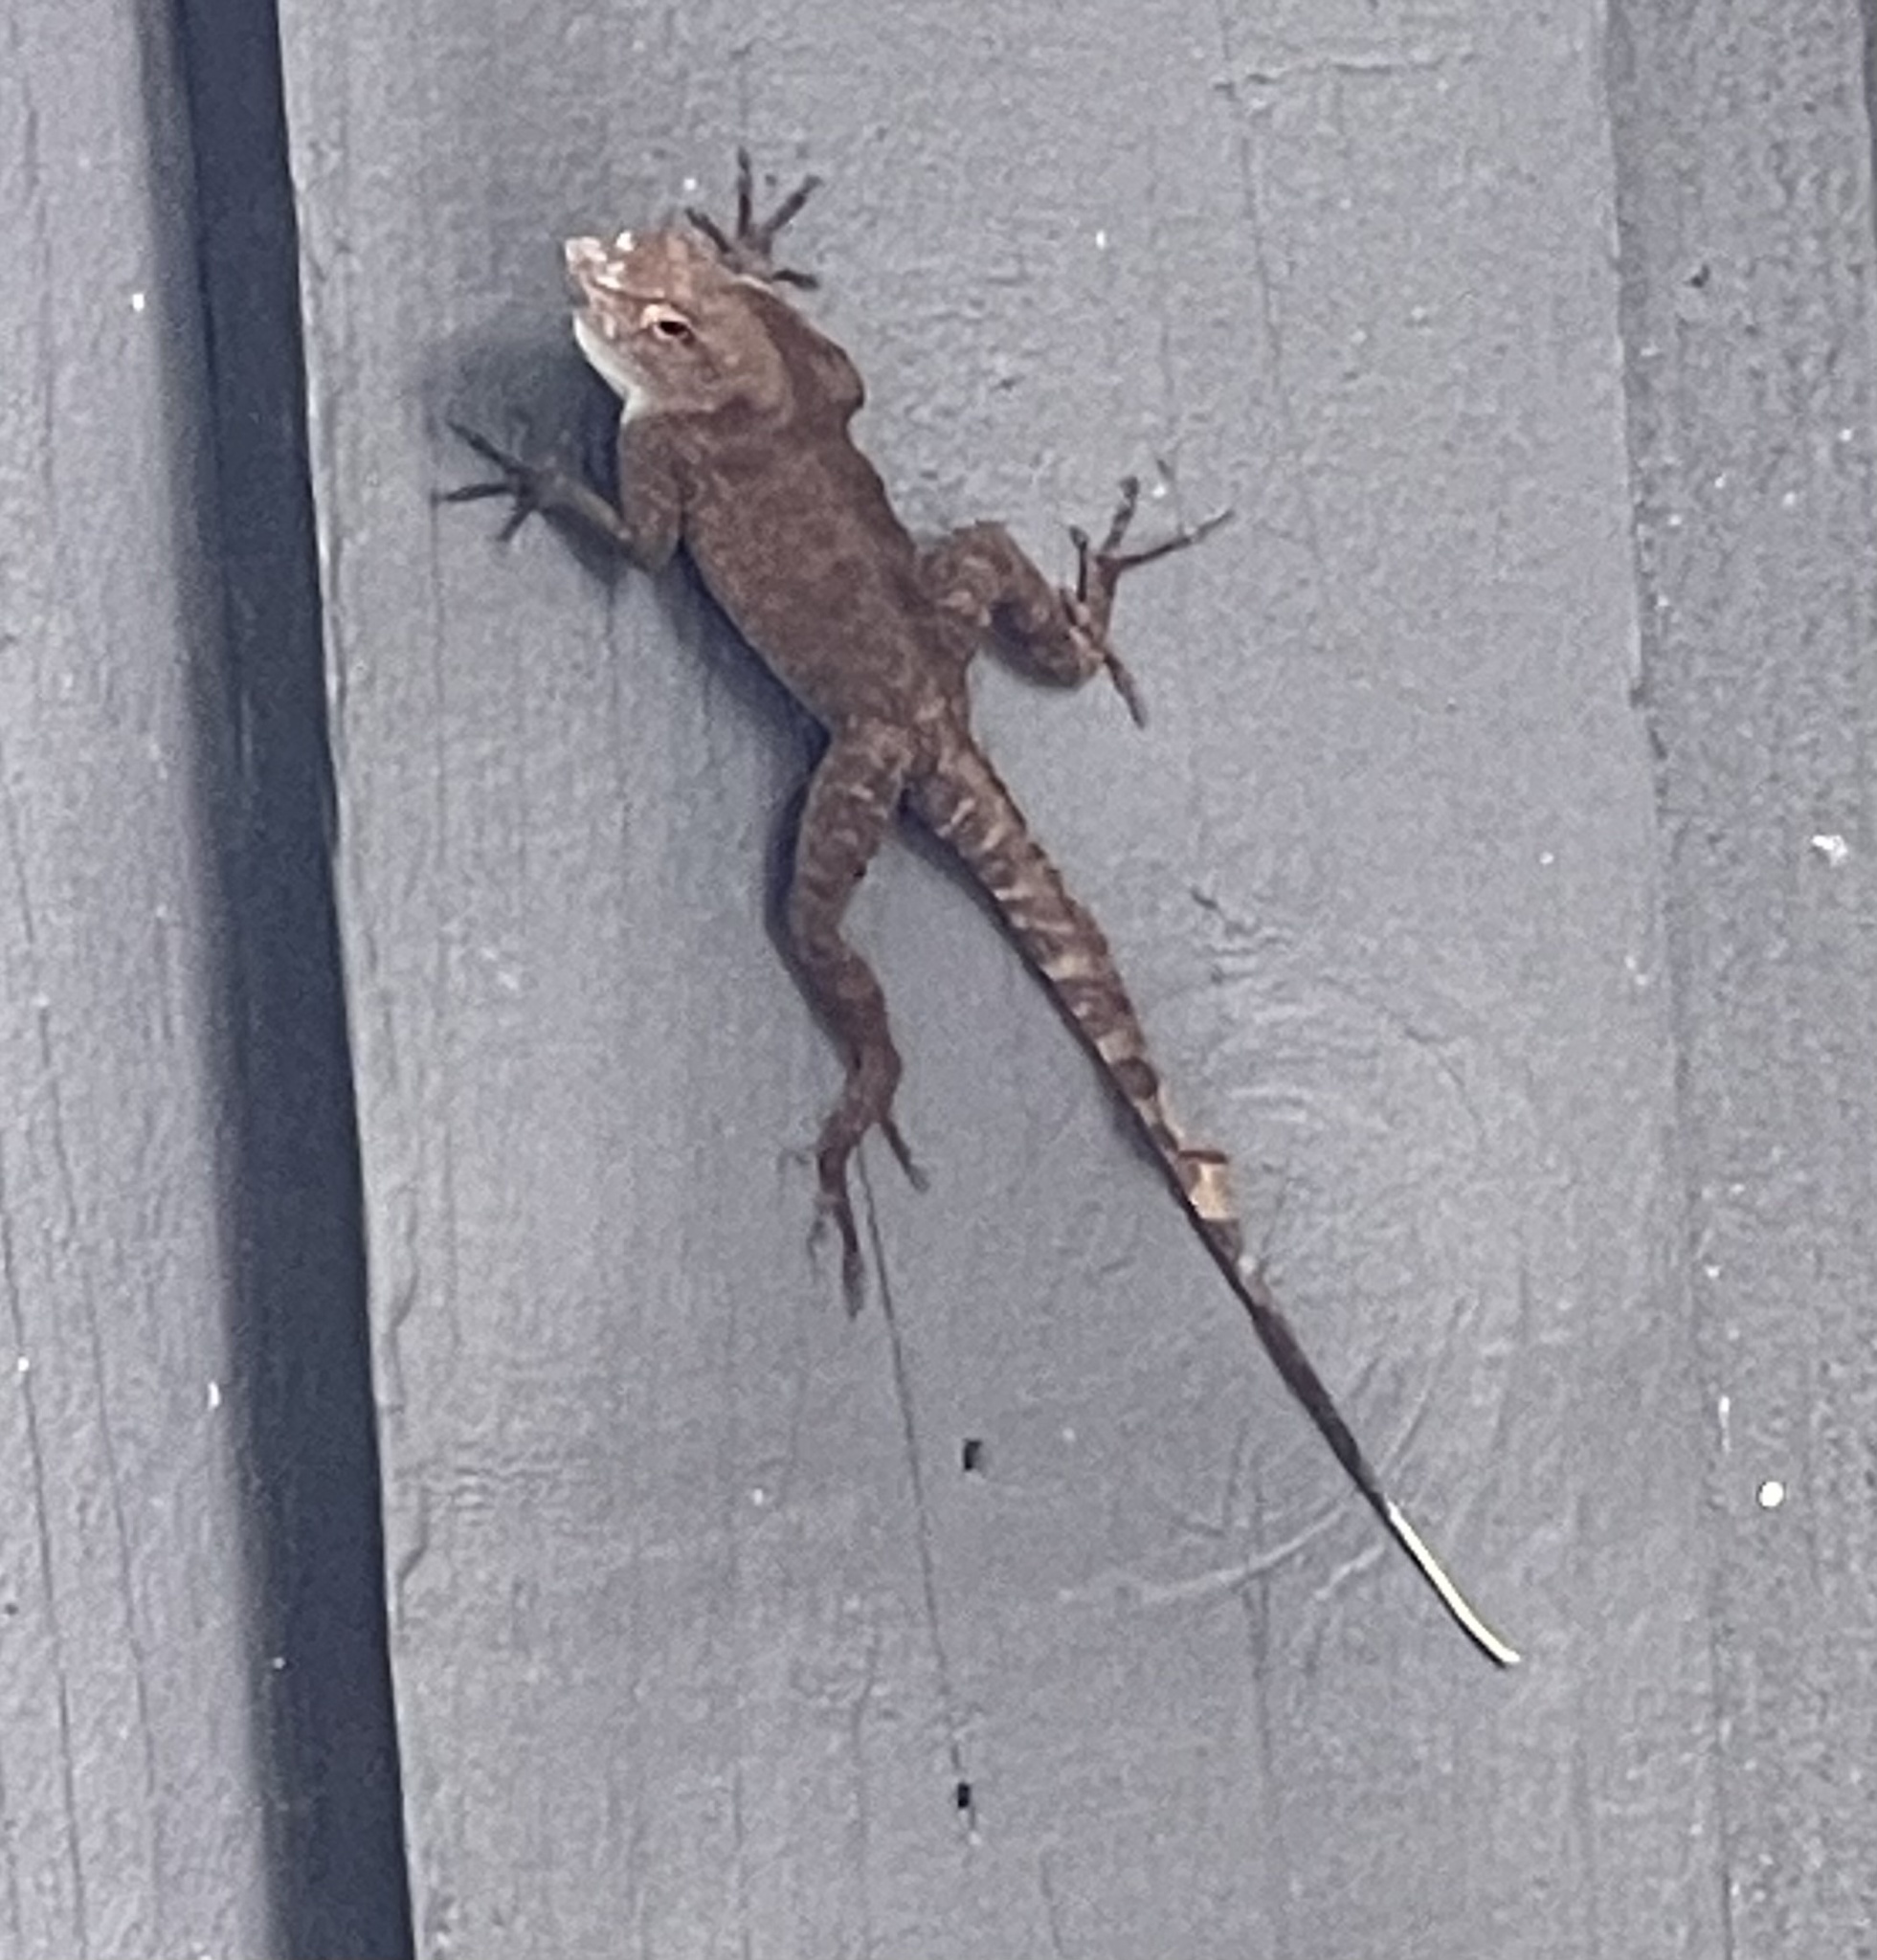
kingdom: Animalia
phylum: Chordata
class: Squamata
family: Dactyloidae
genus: Anolis
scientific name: Anolis cristatellus
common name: Crested anole
